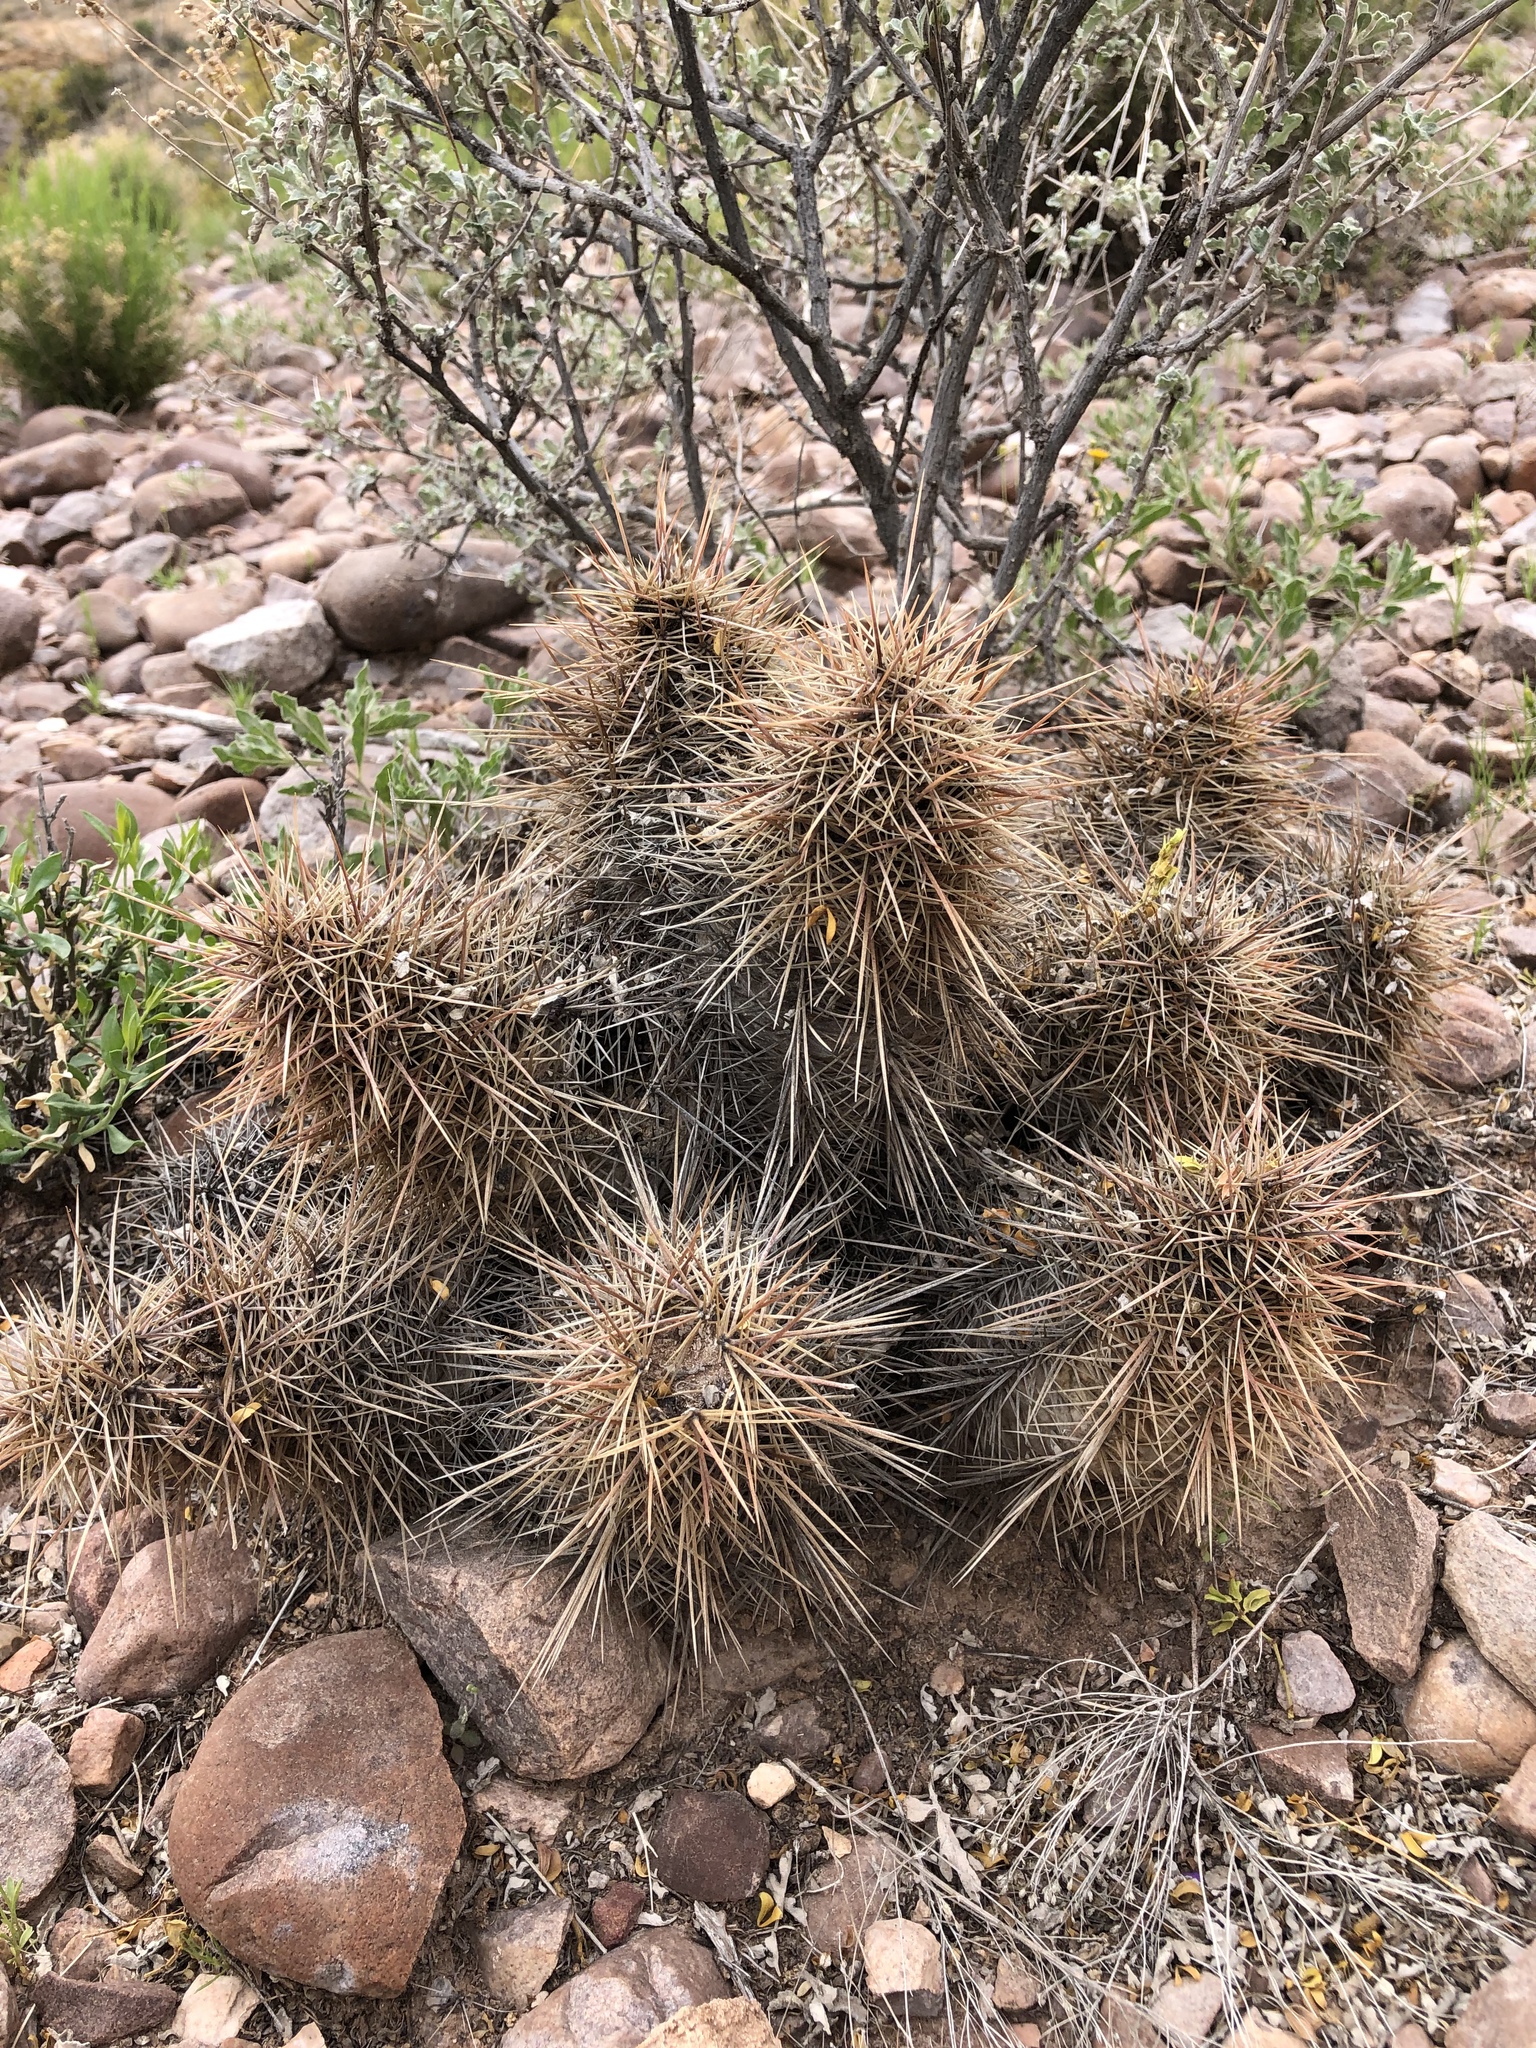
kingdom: Plantae
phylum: Tracheophyta
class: Magnoliopsida
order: Caryophyllales
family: Cactaceae
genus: Echinocereus
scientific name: Echinocereus coccineus
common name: Scarlet hedgehog cactus
